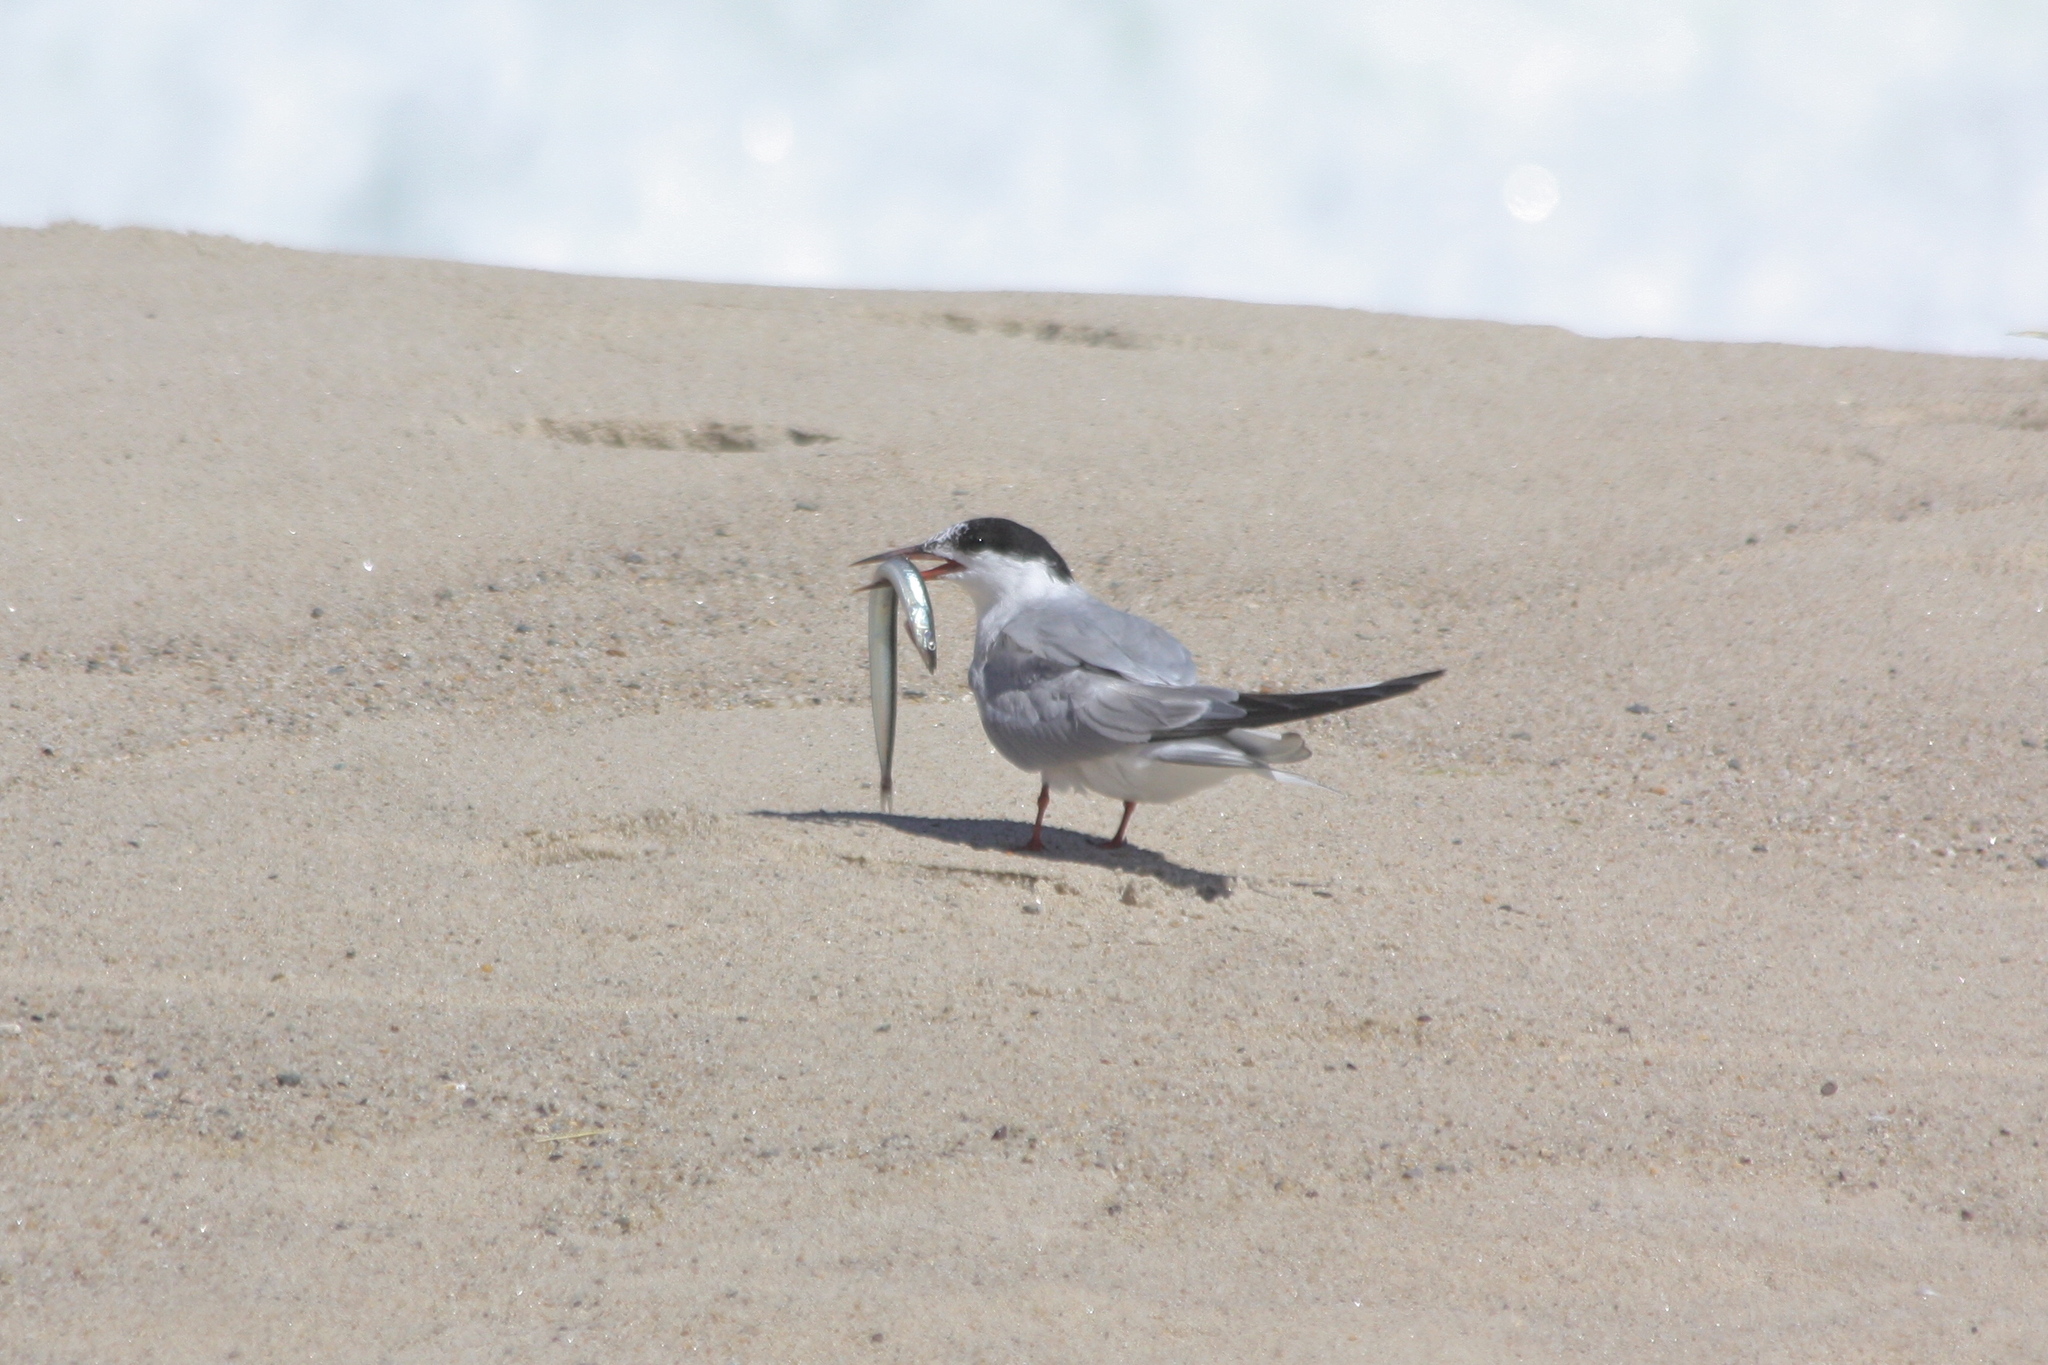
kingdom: Animalia
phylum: Chordata
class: Aves
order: Charadriiformes
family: Laridae
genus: Sterna
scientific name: Sterna hirundo
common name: Common tern
